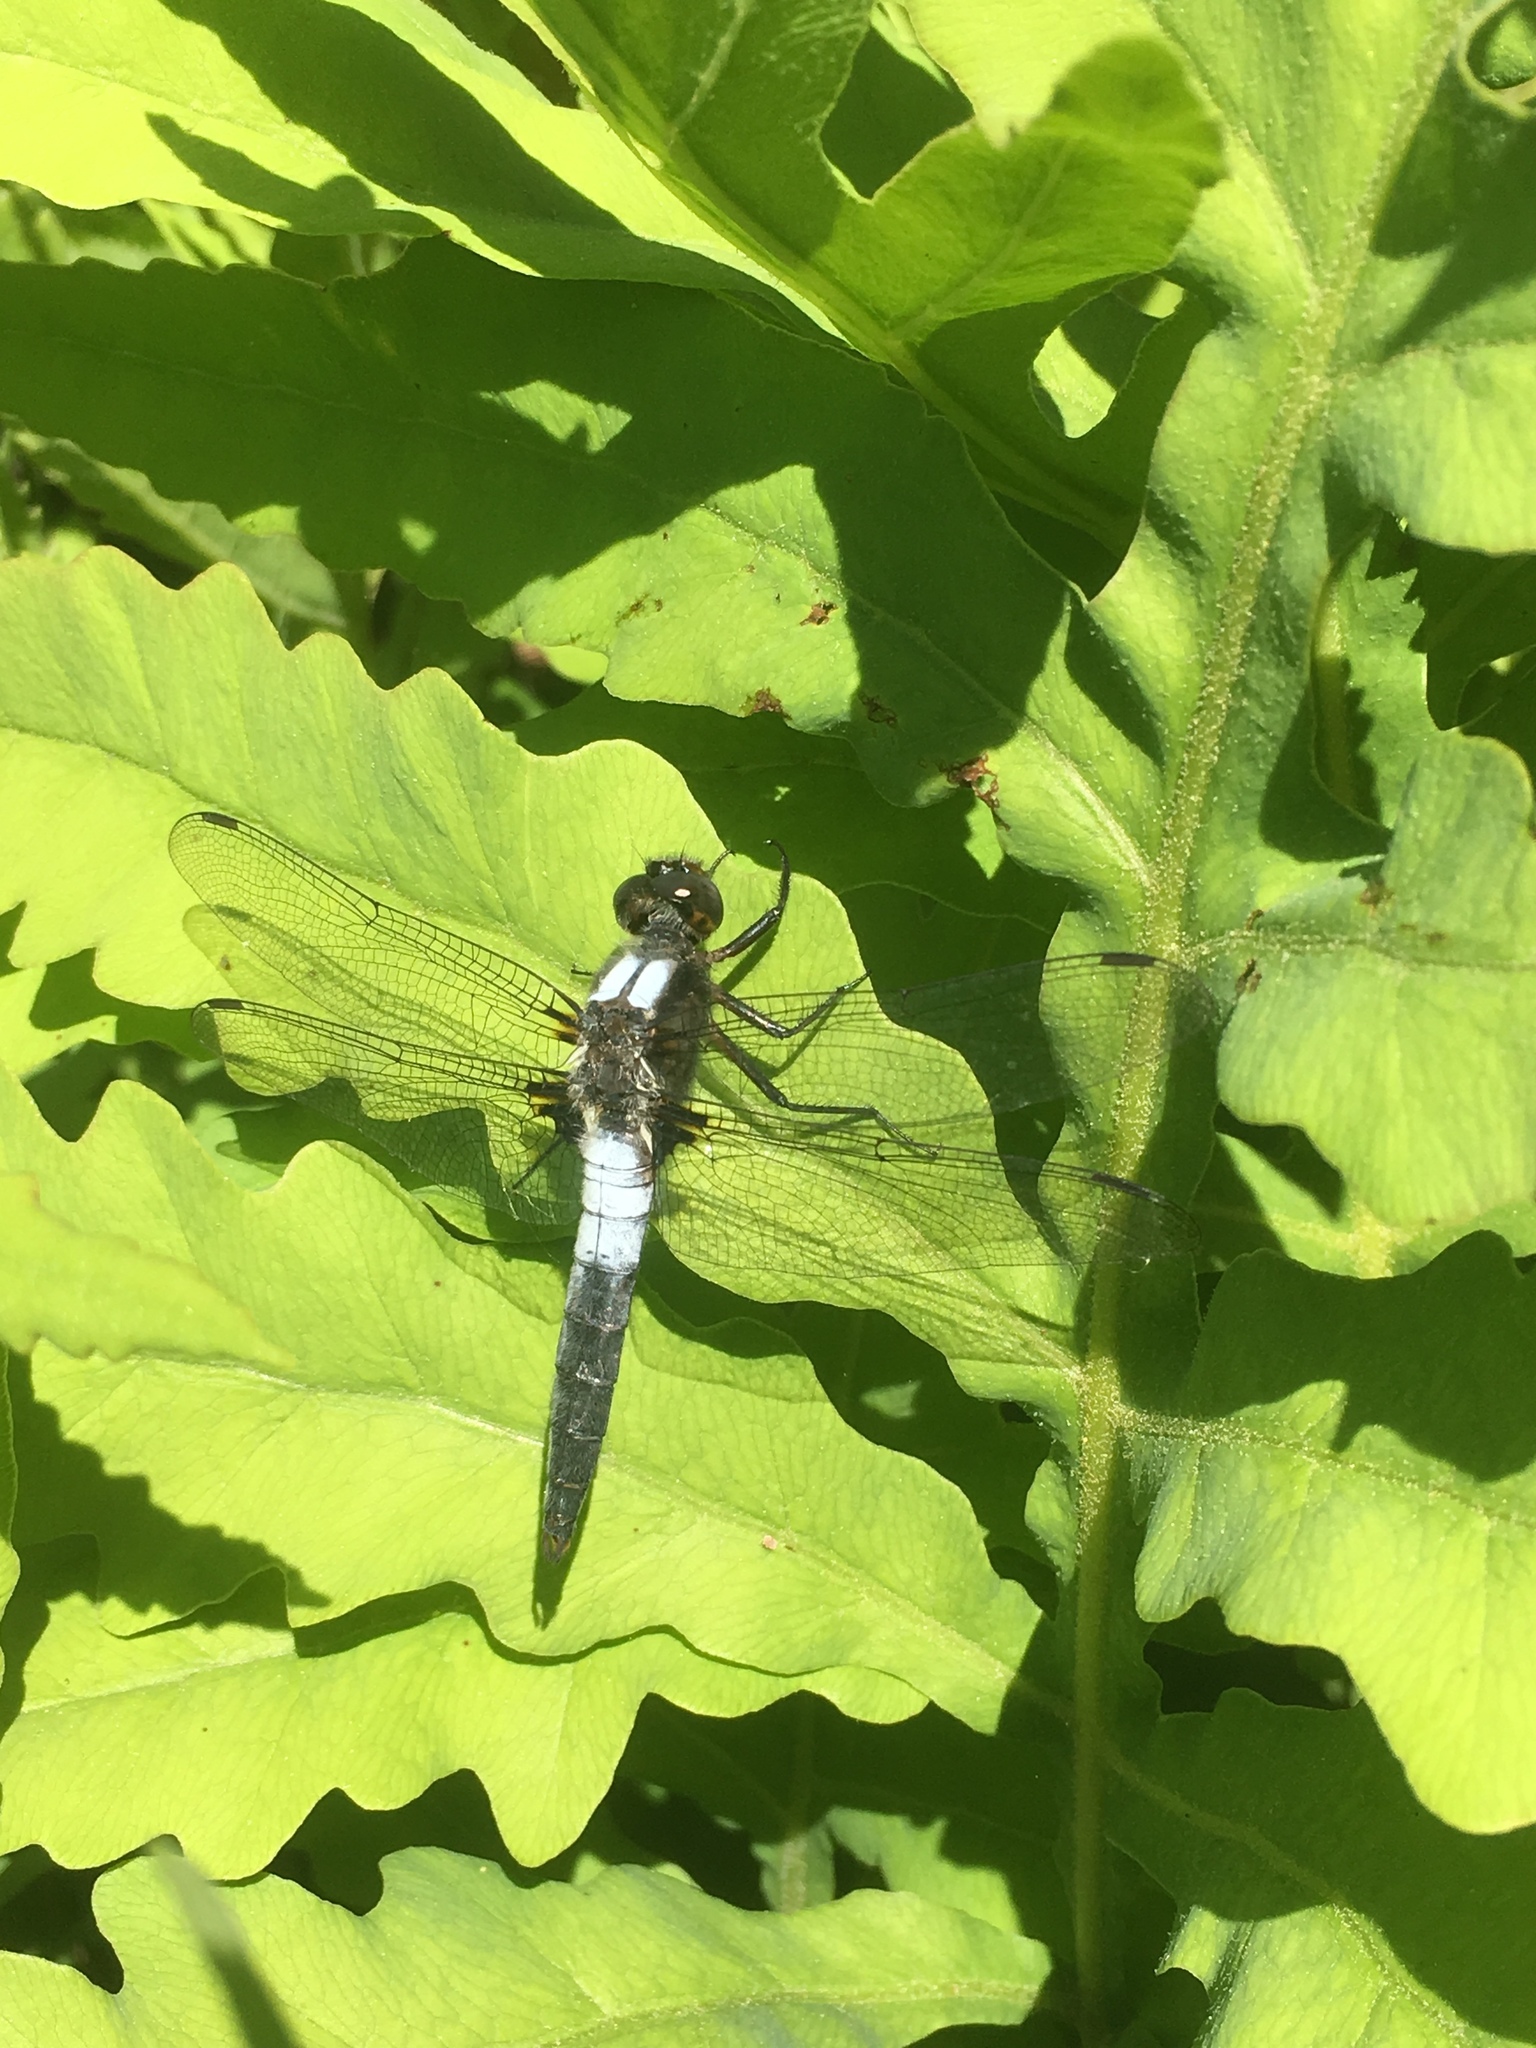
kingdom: Animalia
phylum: Arthropoda
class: Insecta
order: Odonata
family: Libellulidae
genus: Ladona
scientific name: Ladona julia
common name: Chalk-fronted corporal
